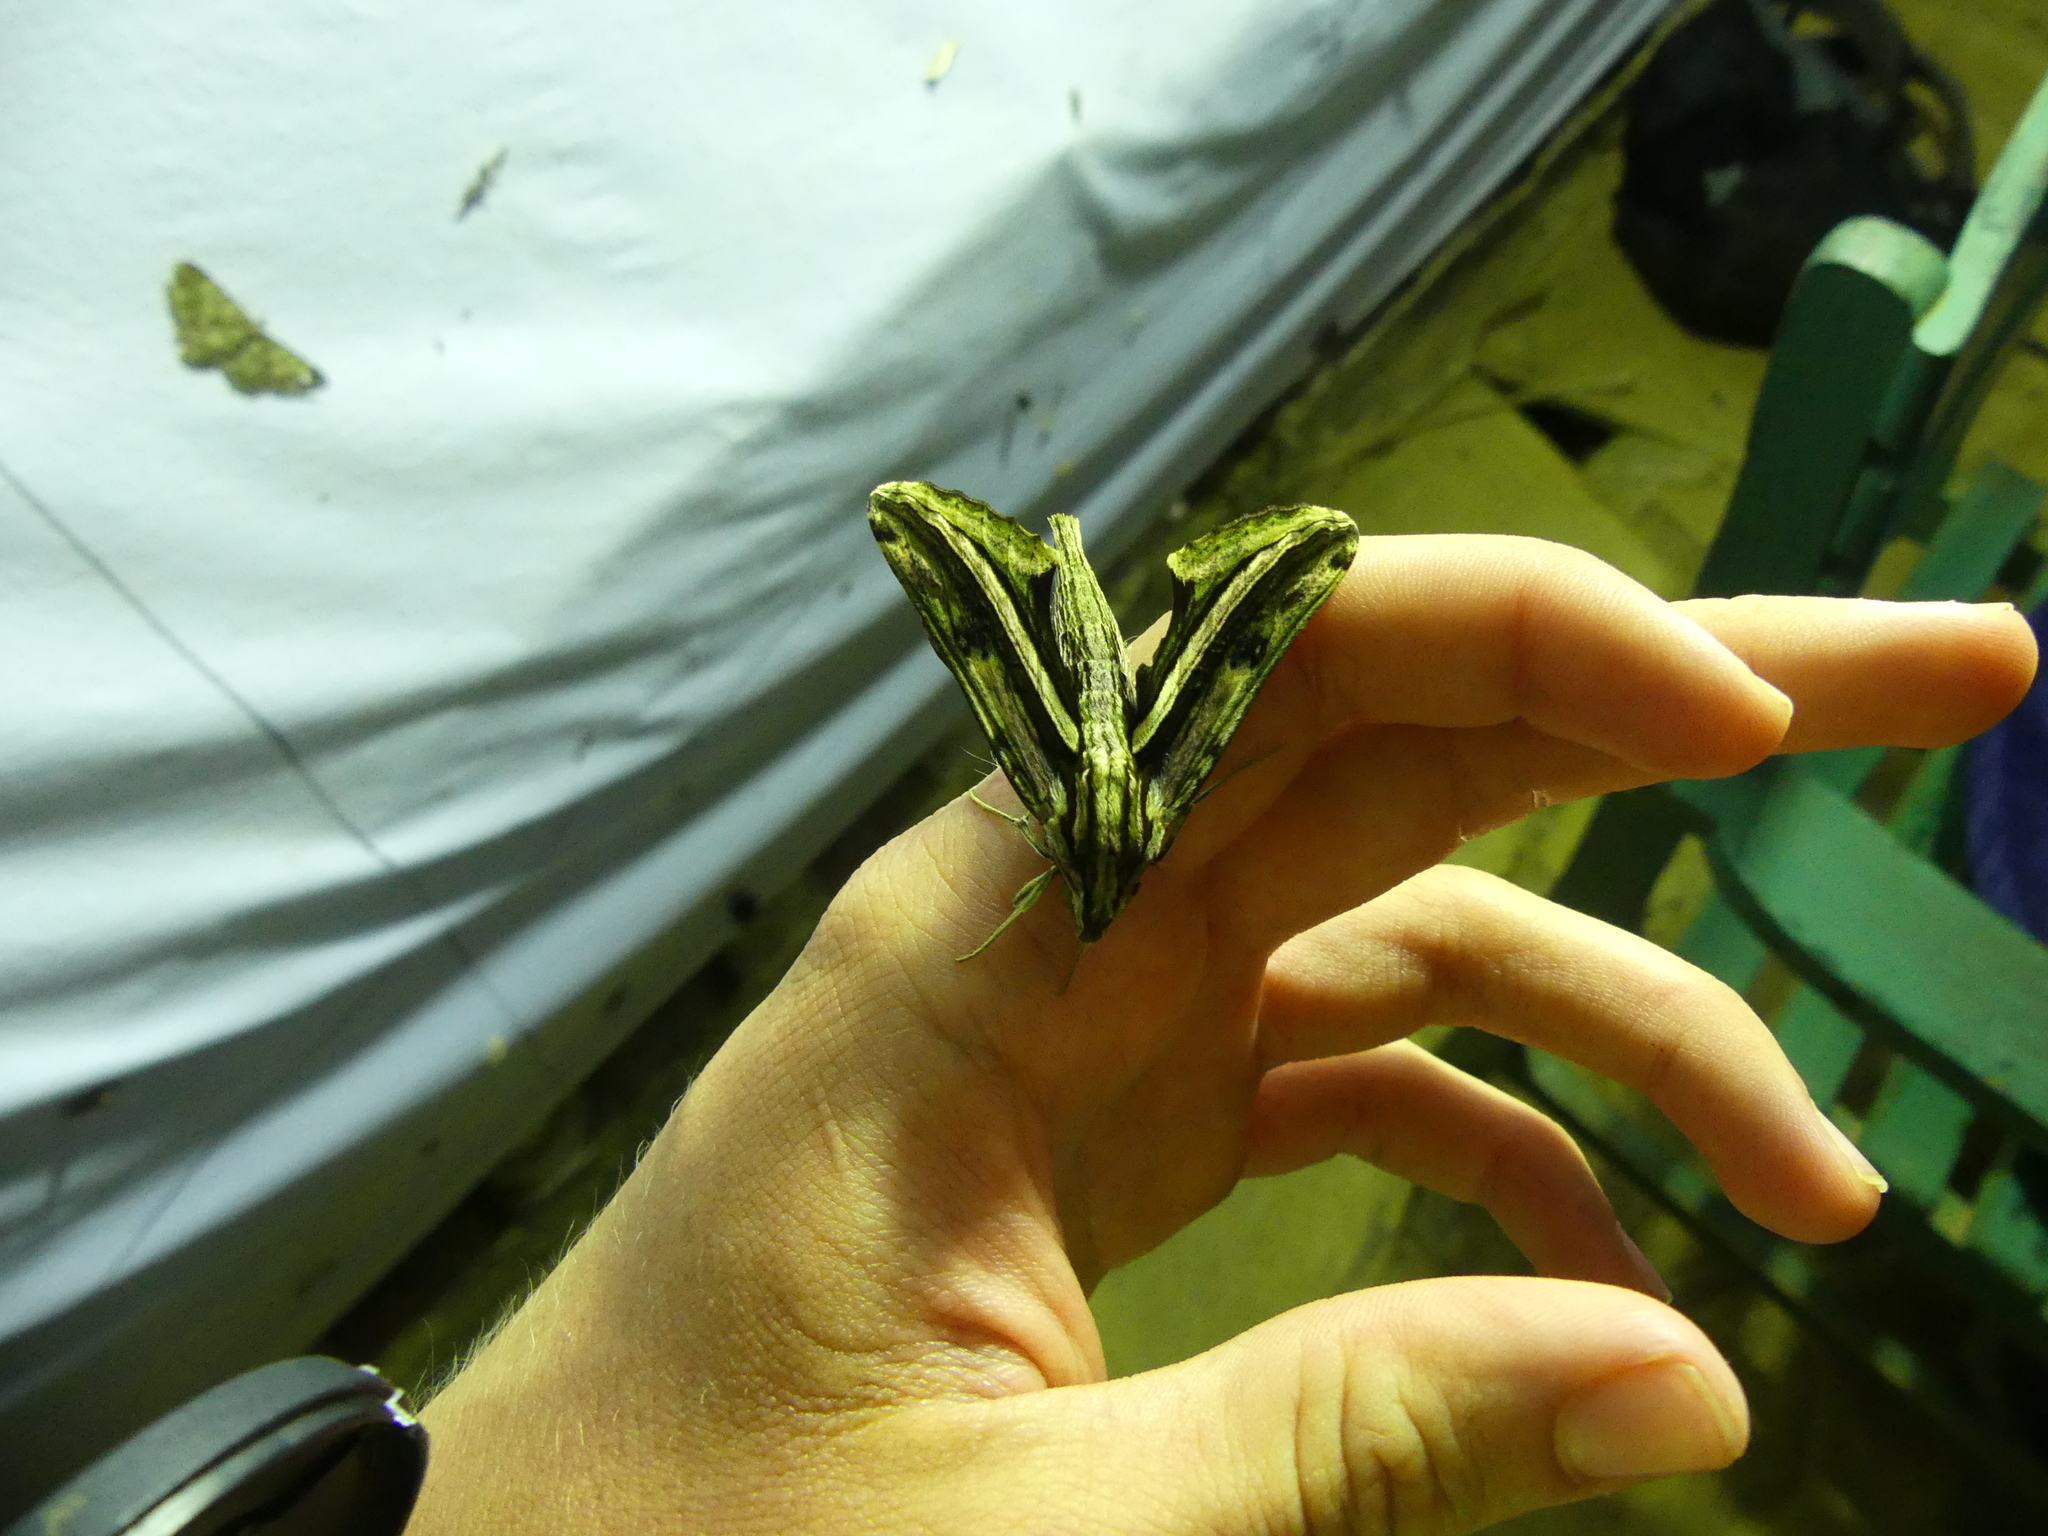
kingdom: Animalia
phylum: Arthropoda
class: Insecta
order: Lepidoptera
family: Sphingidae
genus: Centroctena
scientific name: Centroctena rutherfordi
